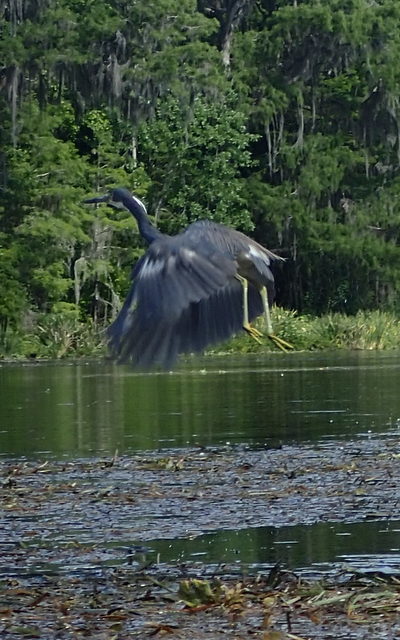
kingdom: Animalia
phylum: Chordata
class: Aves
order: Pelecaniformes
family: Ardeidae
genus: Egretta
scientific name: Egretta caerulea
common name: Little blue heron
